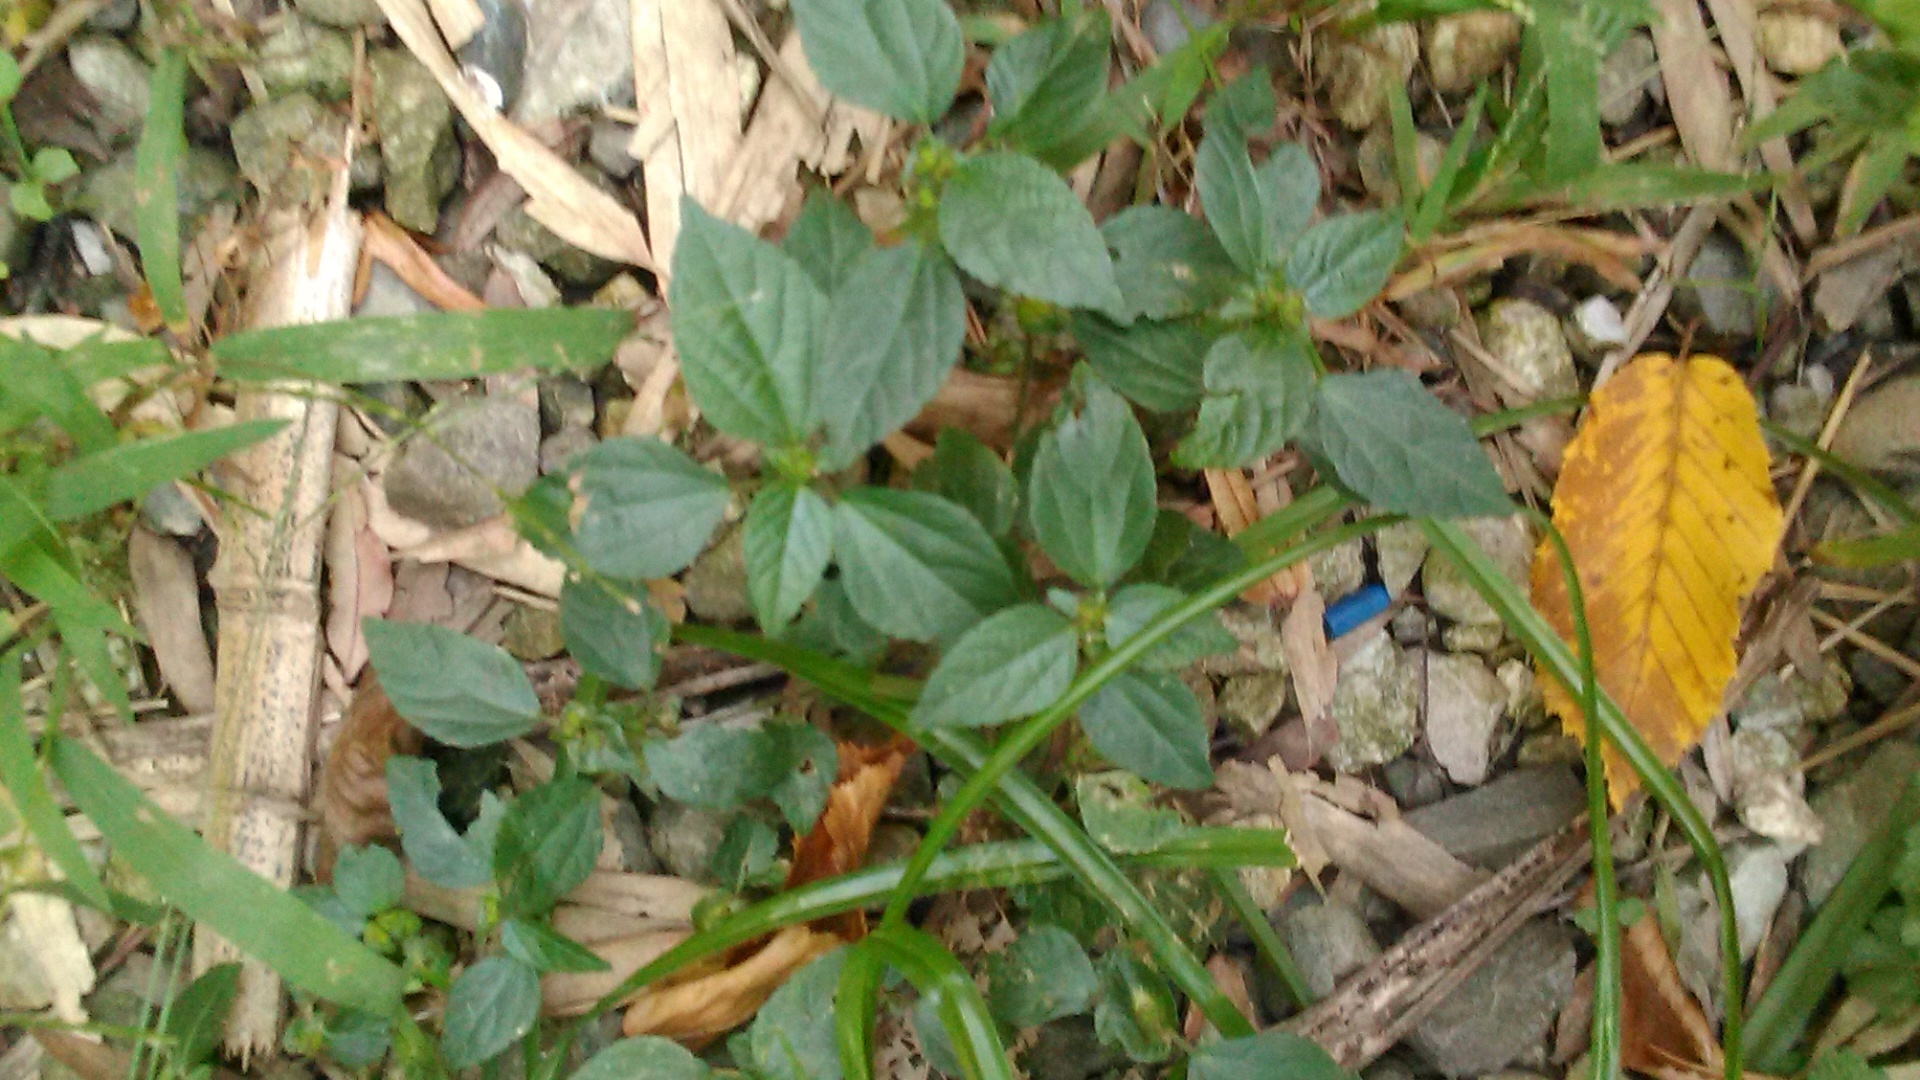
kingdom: Plantae
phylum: Tracheophyta
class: Magnoliopsida
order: Malpighiales
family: Euphorbiaceae
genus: Acalypha
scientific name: Acalypha australis
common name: Asian copperleaf
